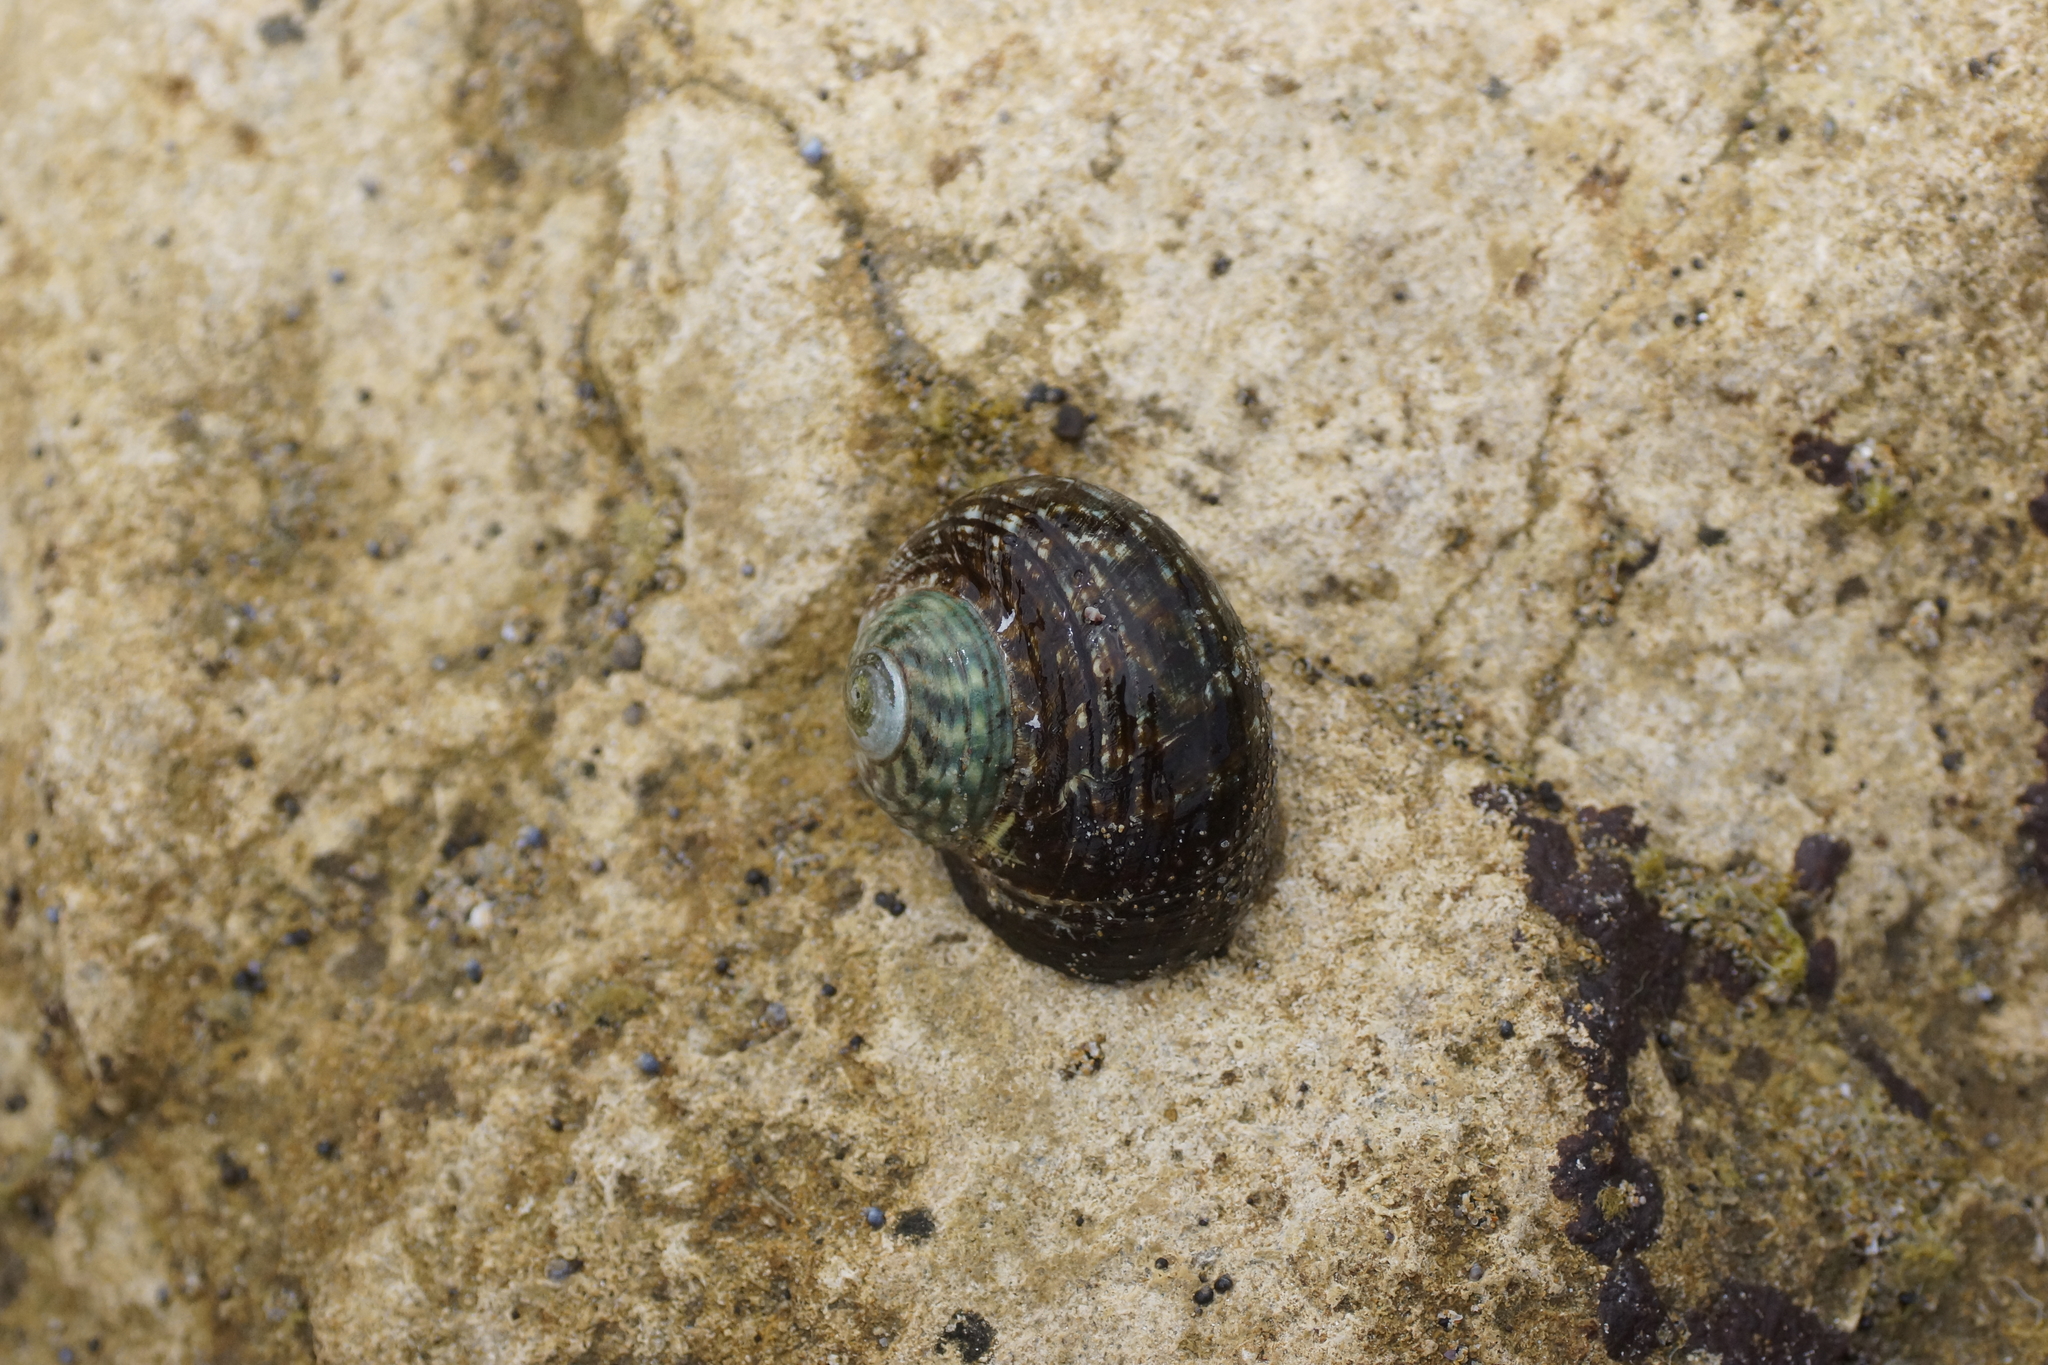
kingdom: Animalia
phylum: Mollusca
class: Gastropoda
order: Trochida
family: Turbinidae
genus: Lunella
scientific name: Lunella undulata
